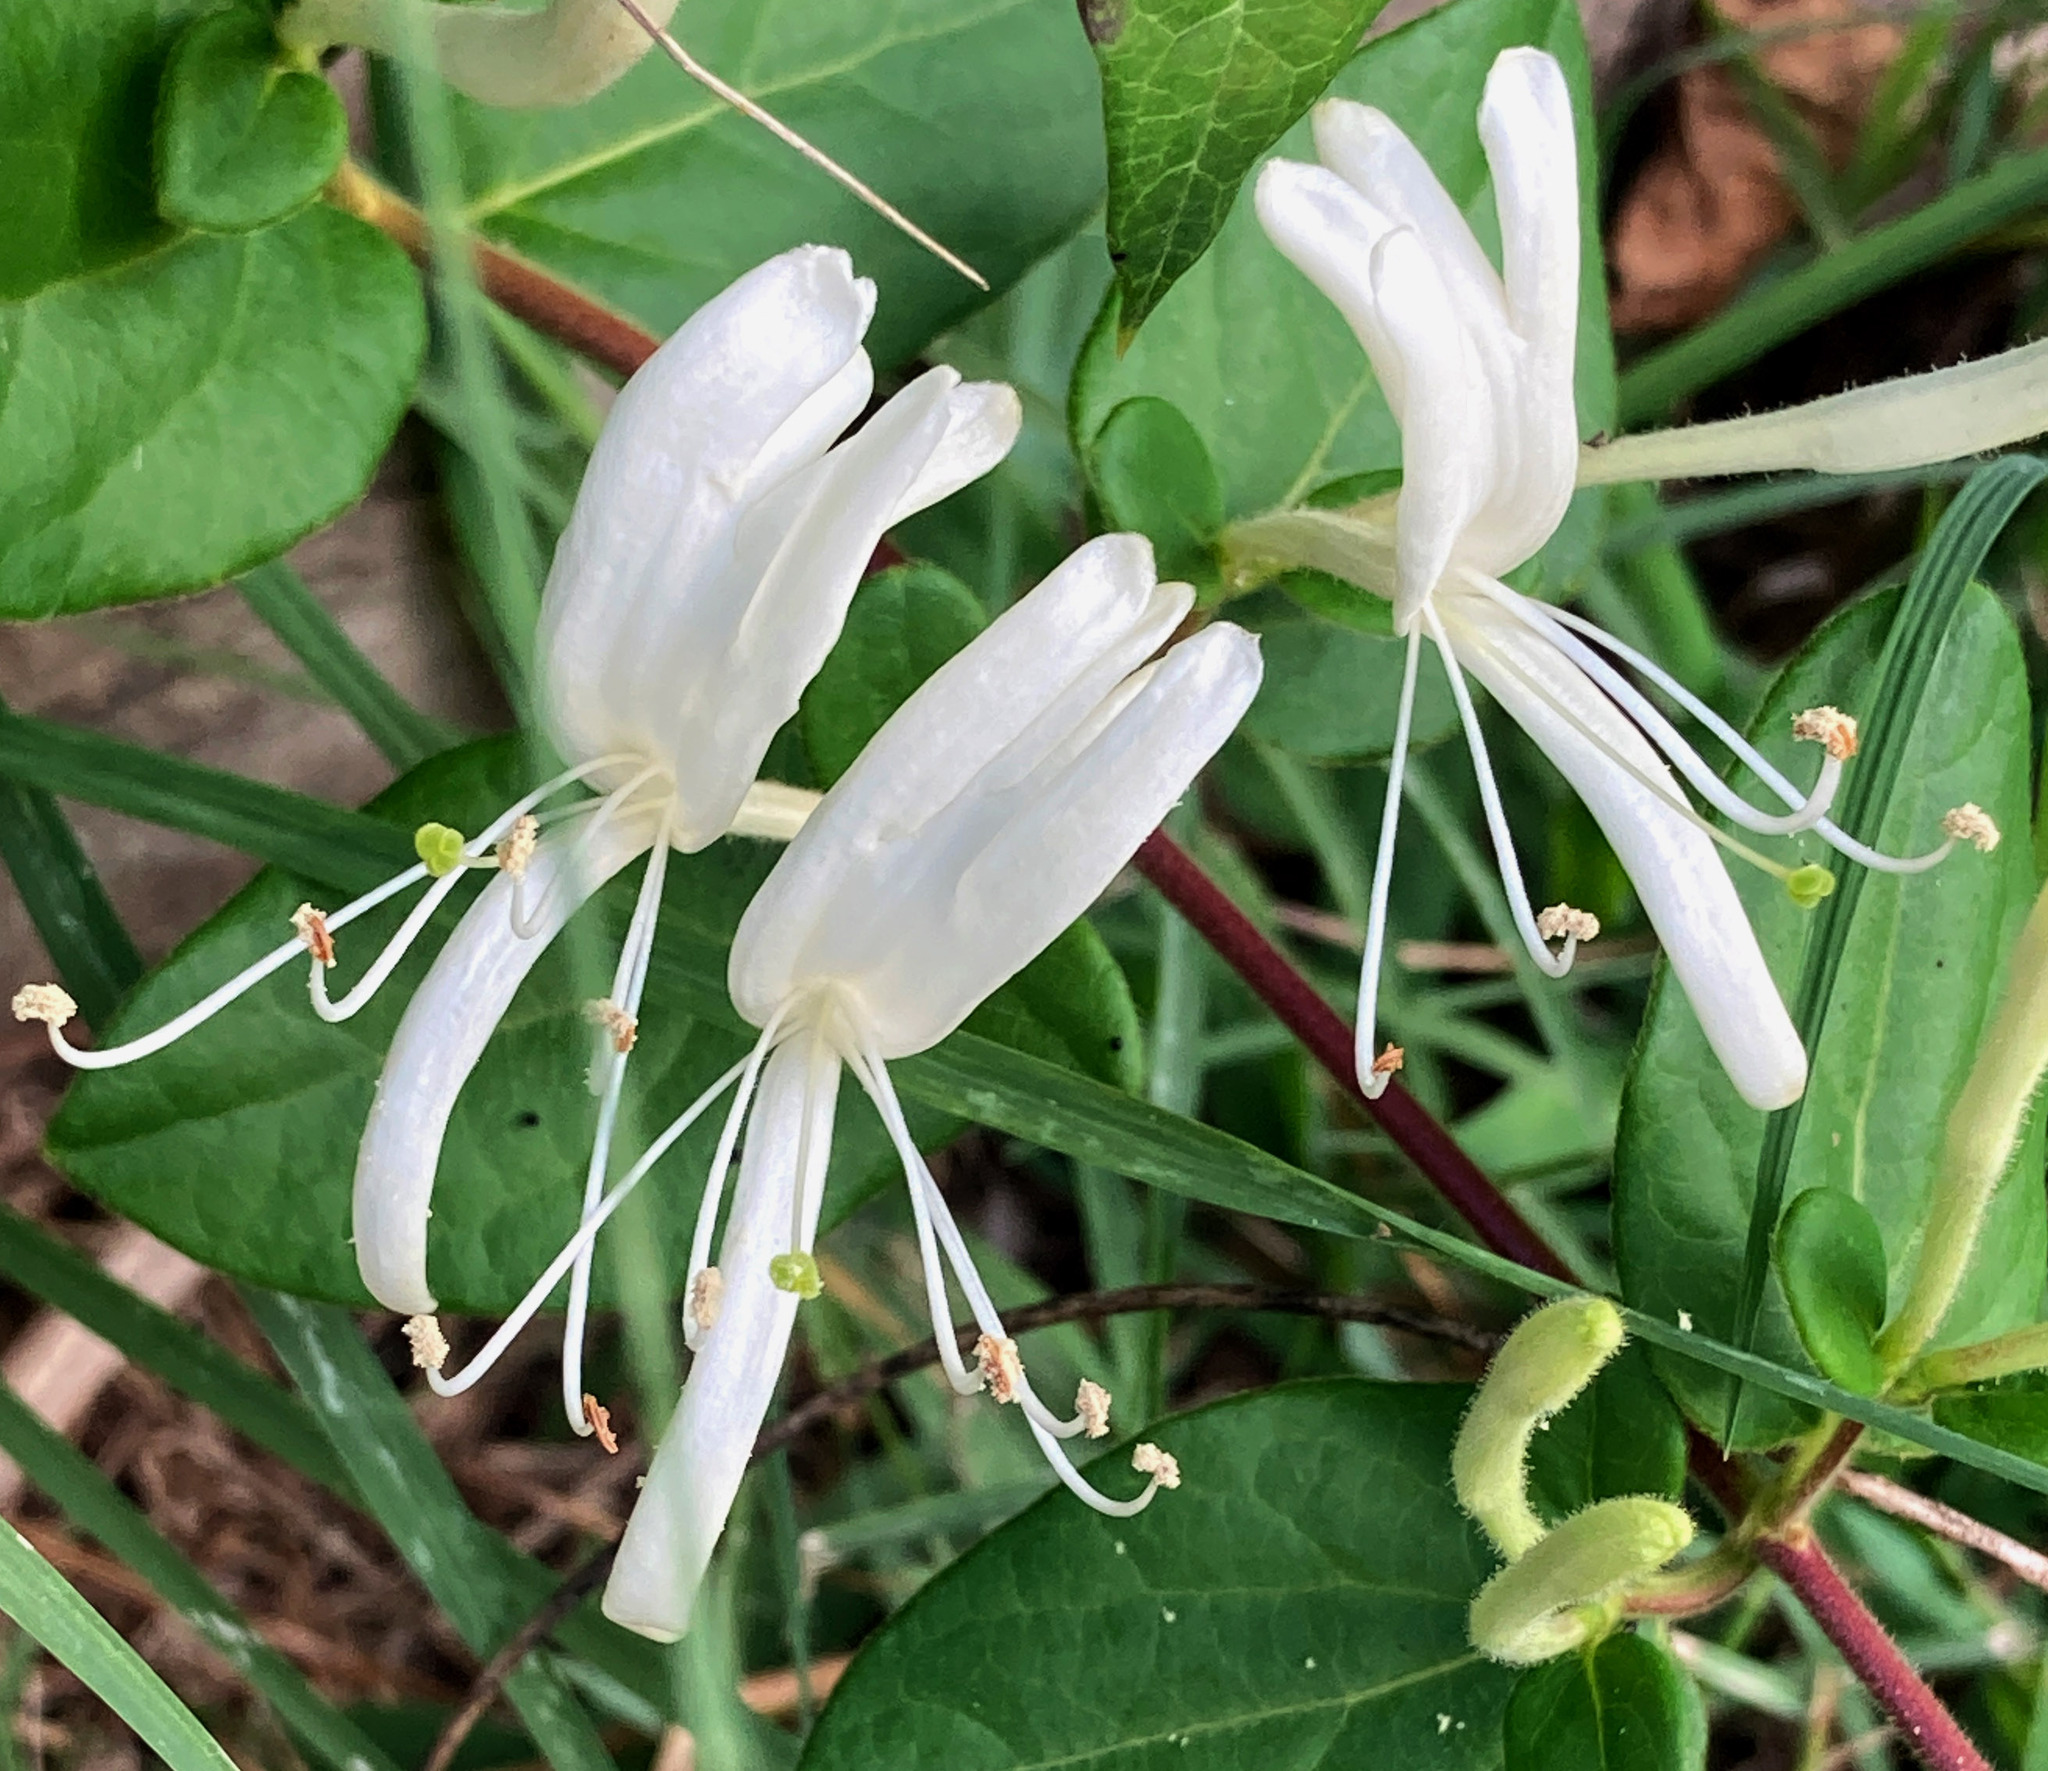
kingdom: Plantae
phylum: Tracheophyta
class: Magnoliopsida
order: Dipsacales
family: Caprifoliaceae
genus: Lonicera
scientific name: Lonicera japonica
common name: Japanese honeysuckle
